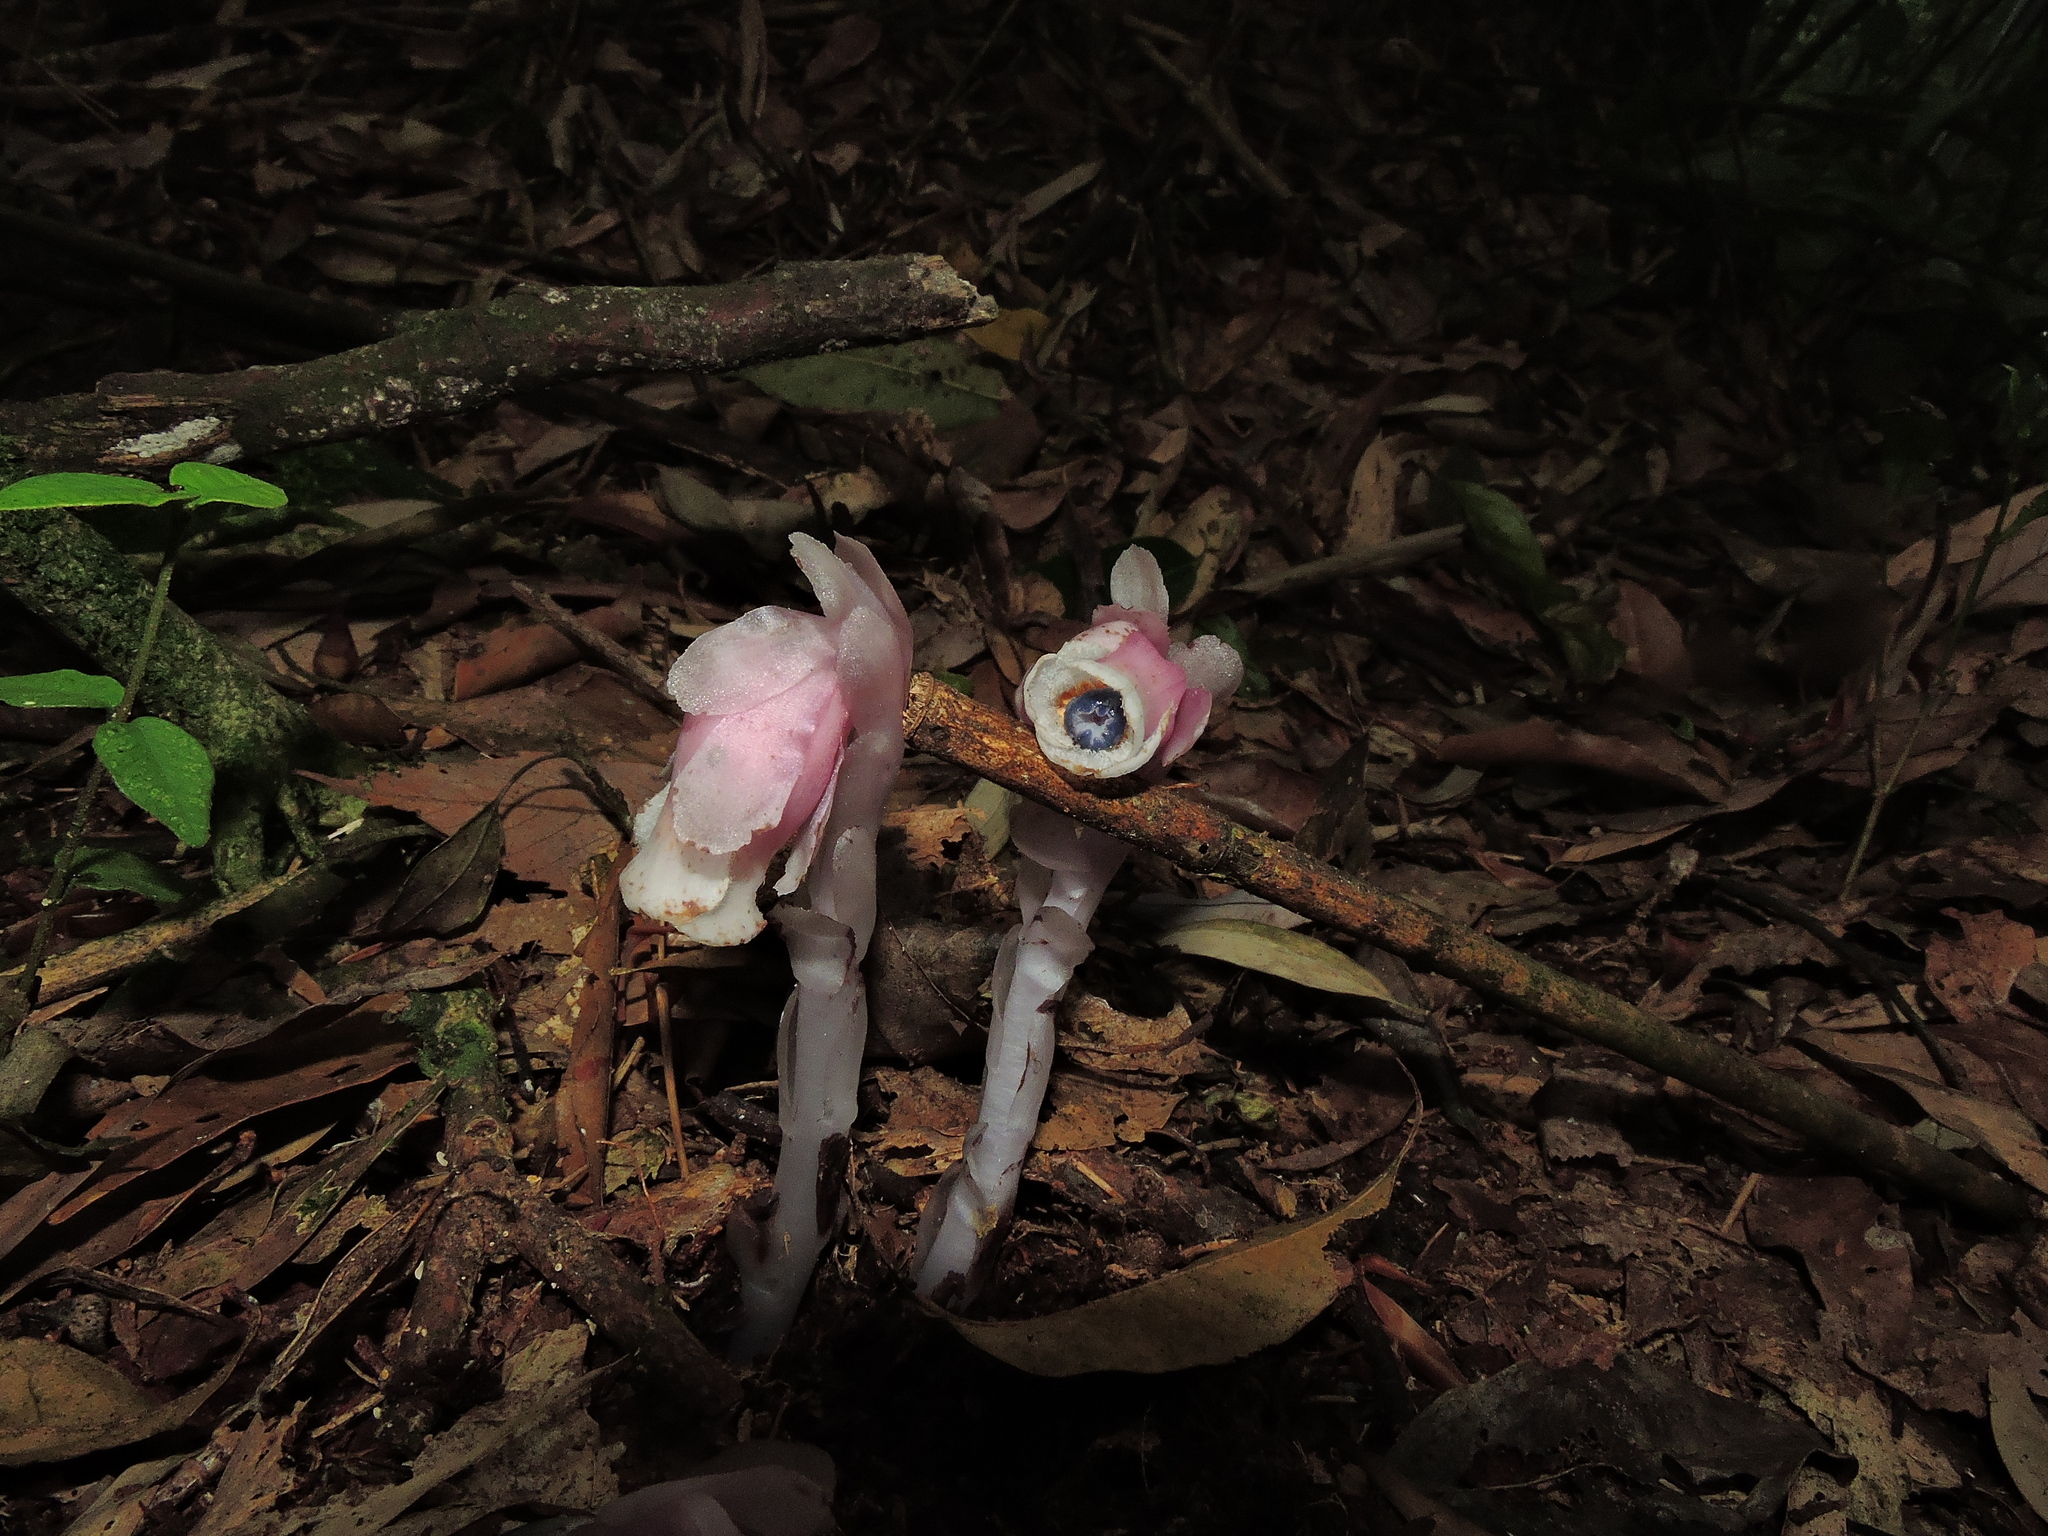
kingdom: Plantae
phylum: Tracheophyta
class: Magnoliopsida
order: Ericales
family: Ericaceae
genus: Monotropastrum
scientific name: Monotropastrum humile
